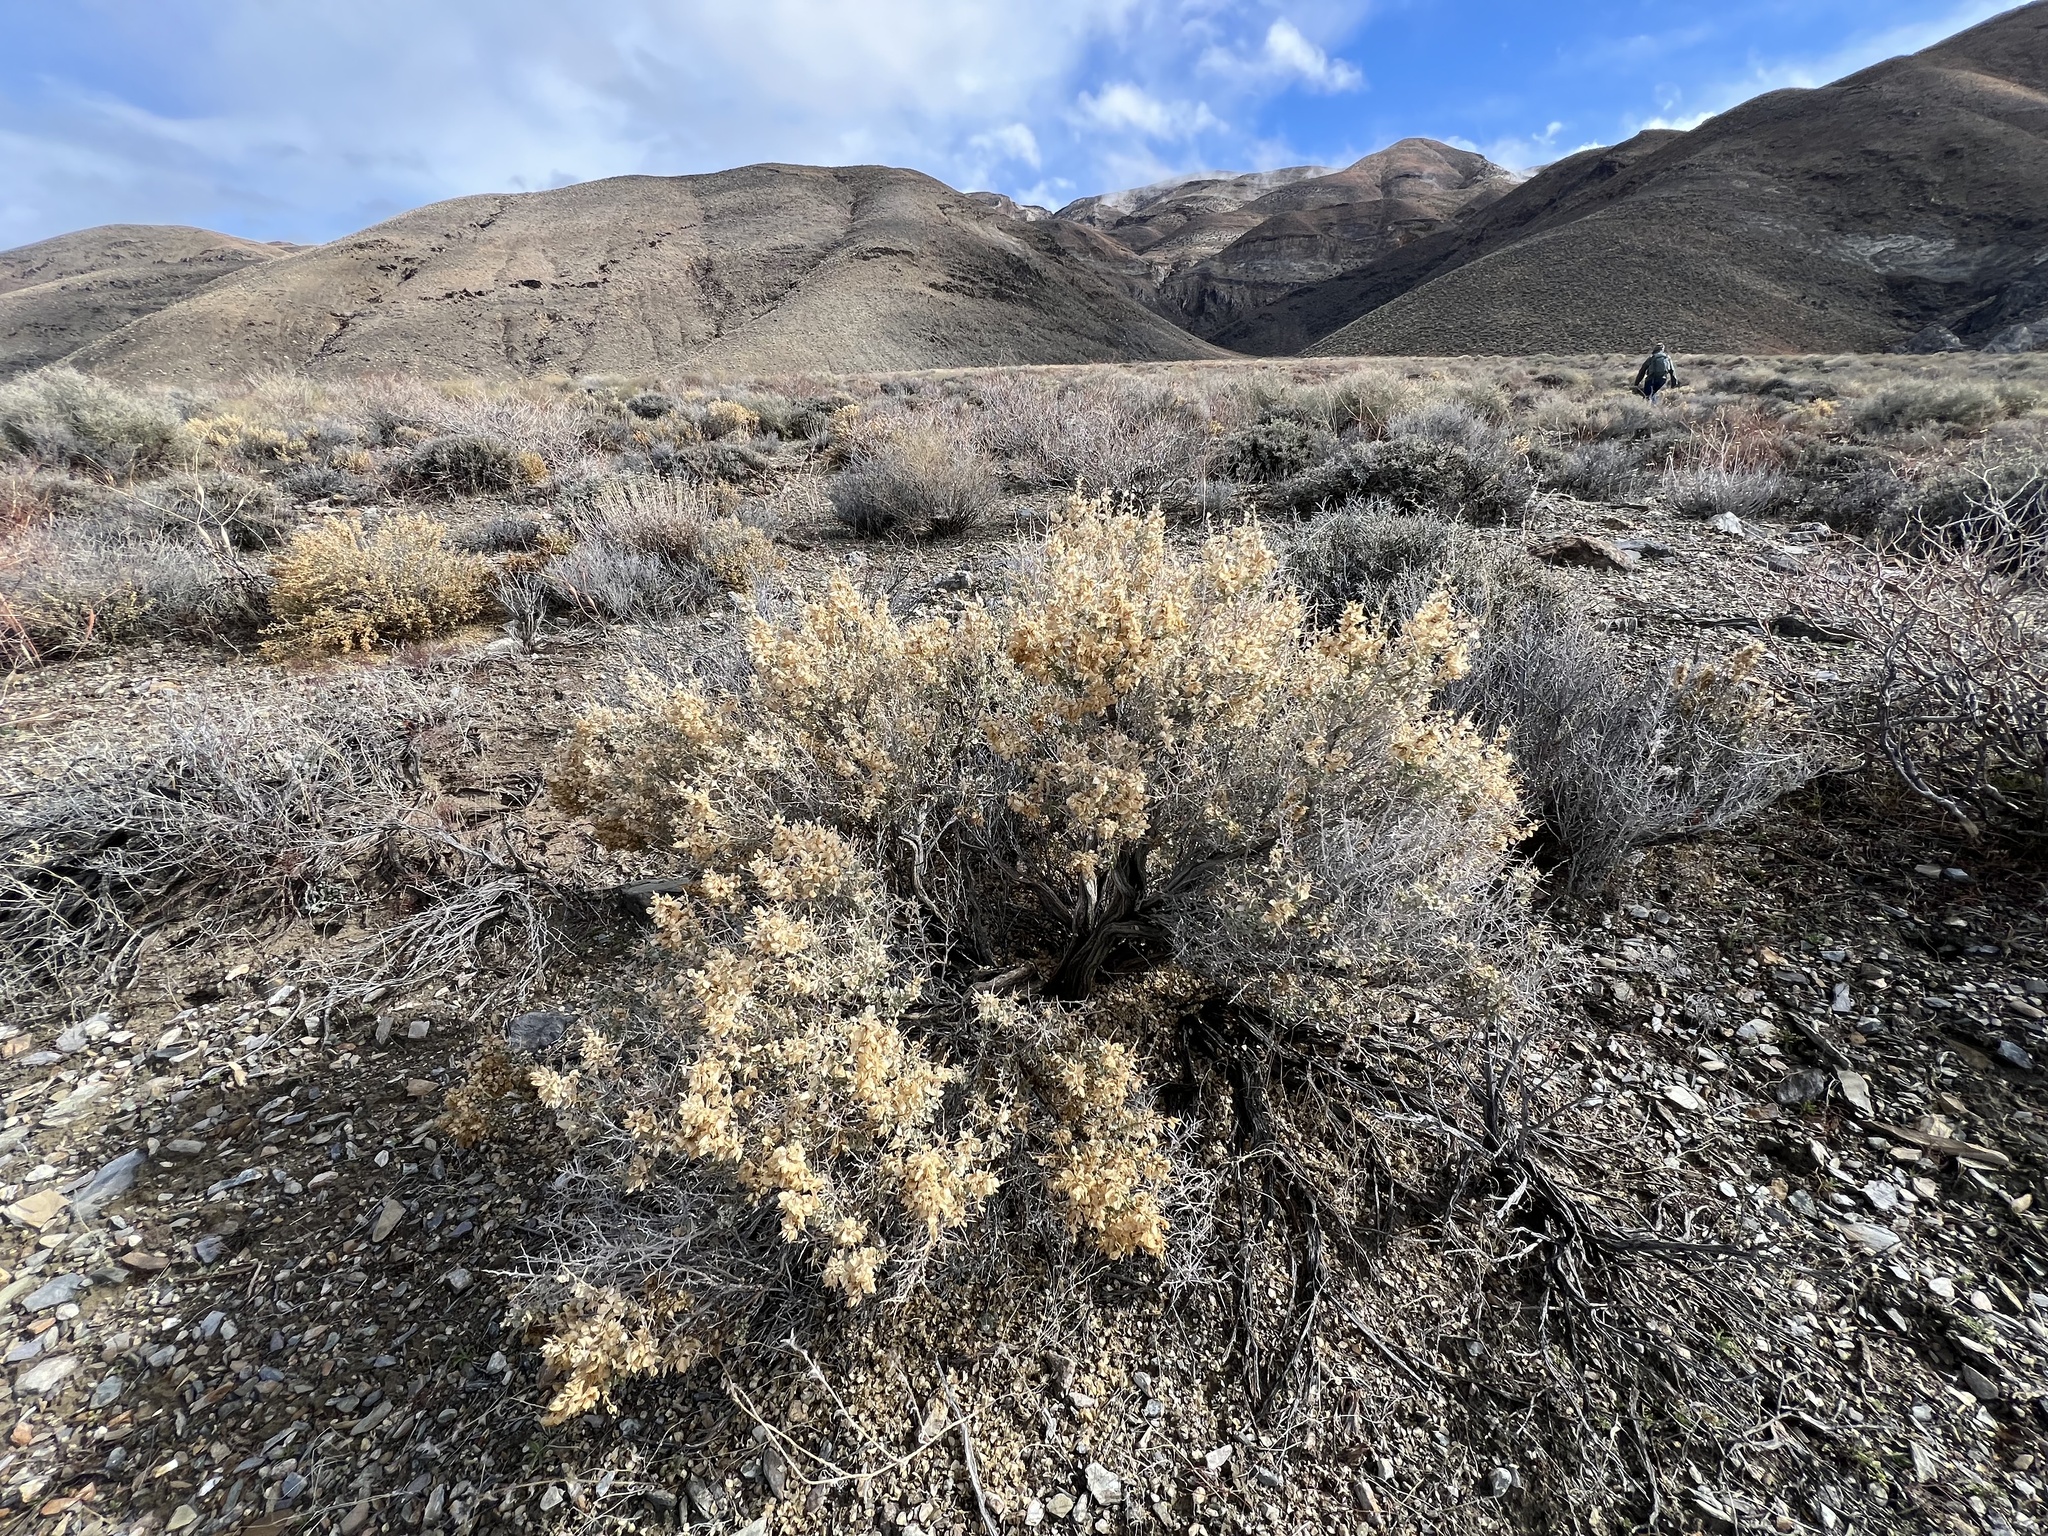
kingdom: Plantae
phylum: Tracheophyta
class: Magnoliopsida
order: Caryophyllales
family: Amaranthaceae
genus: Atriplex
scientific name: Atriplex confertifolia
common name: Shadscale
